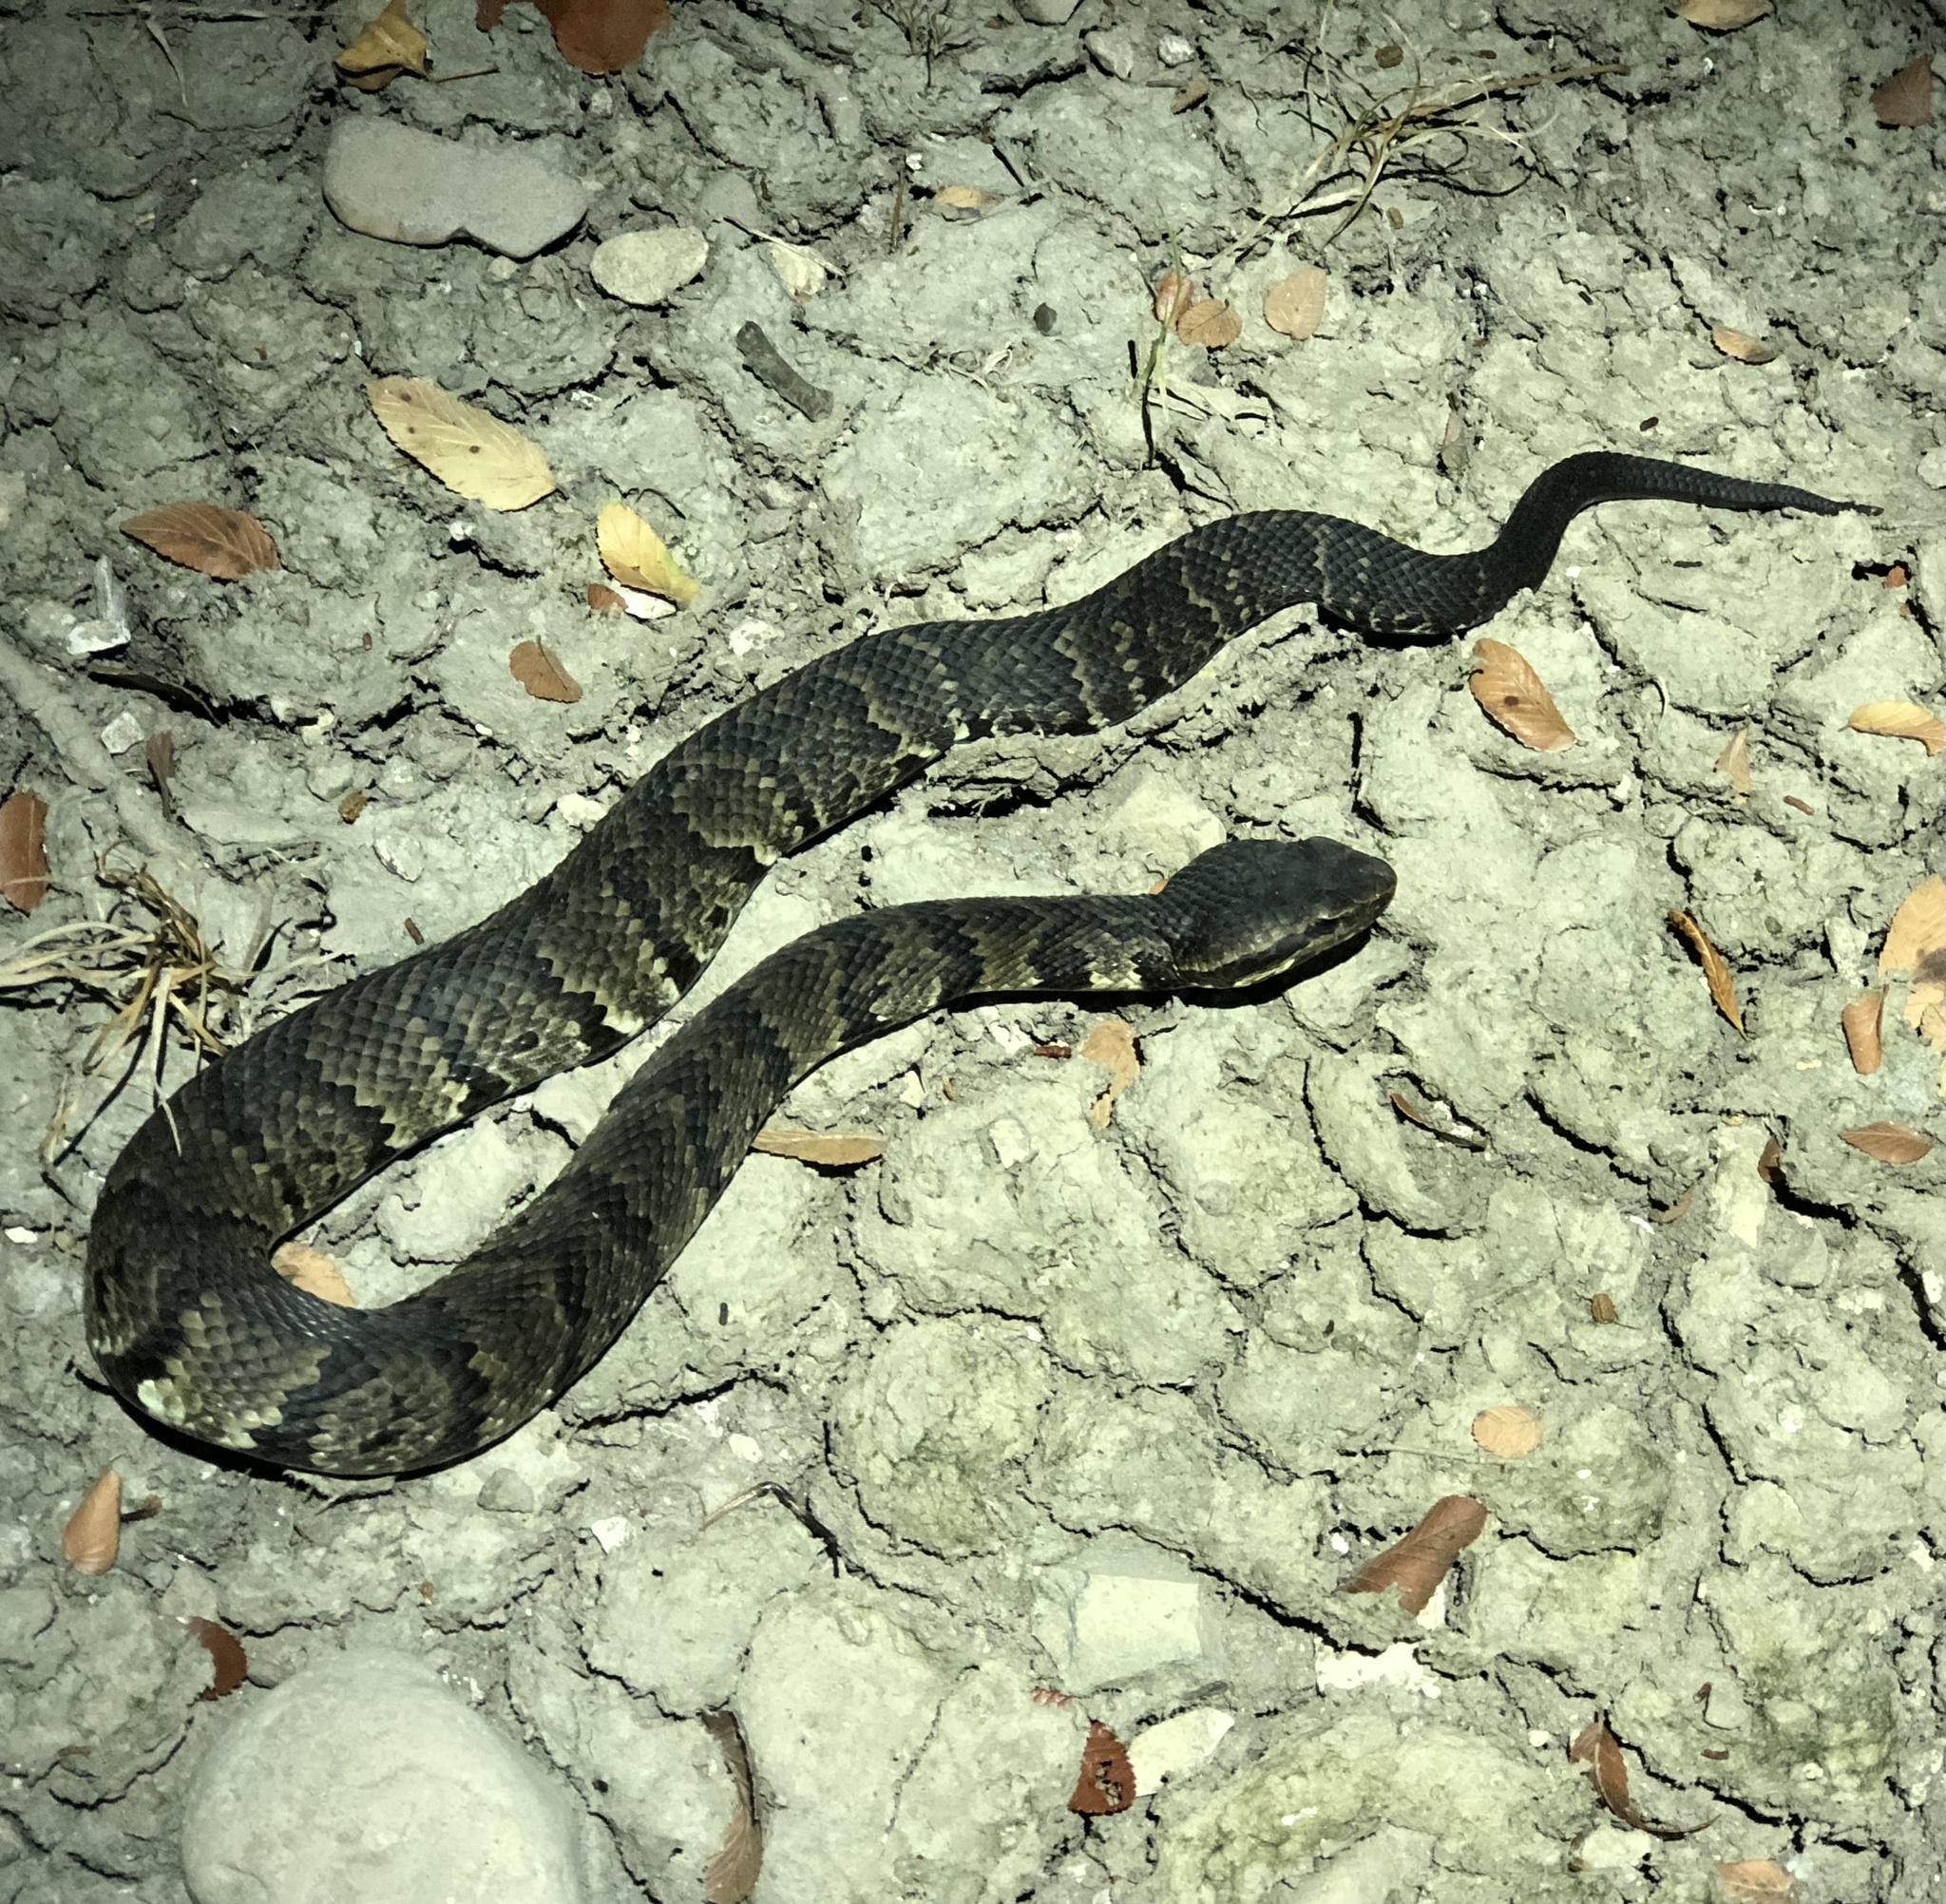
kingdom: Animalia
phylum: Chordata
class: Squamata
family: Viperidae
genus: Agkistrodon
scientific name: Agkistrodon piscivorus
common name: Cottonmouth
